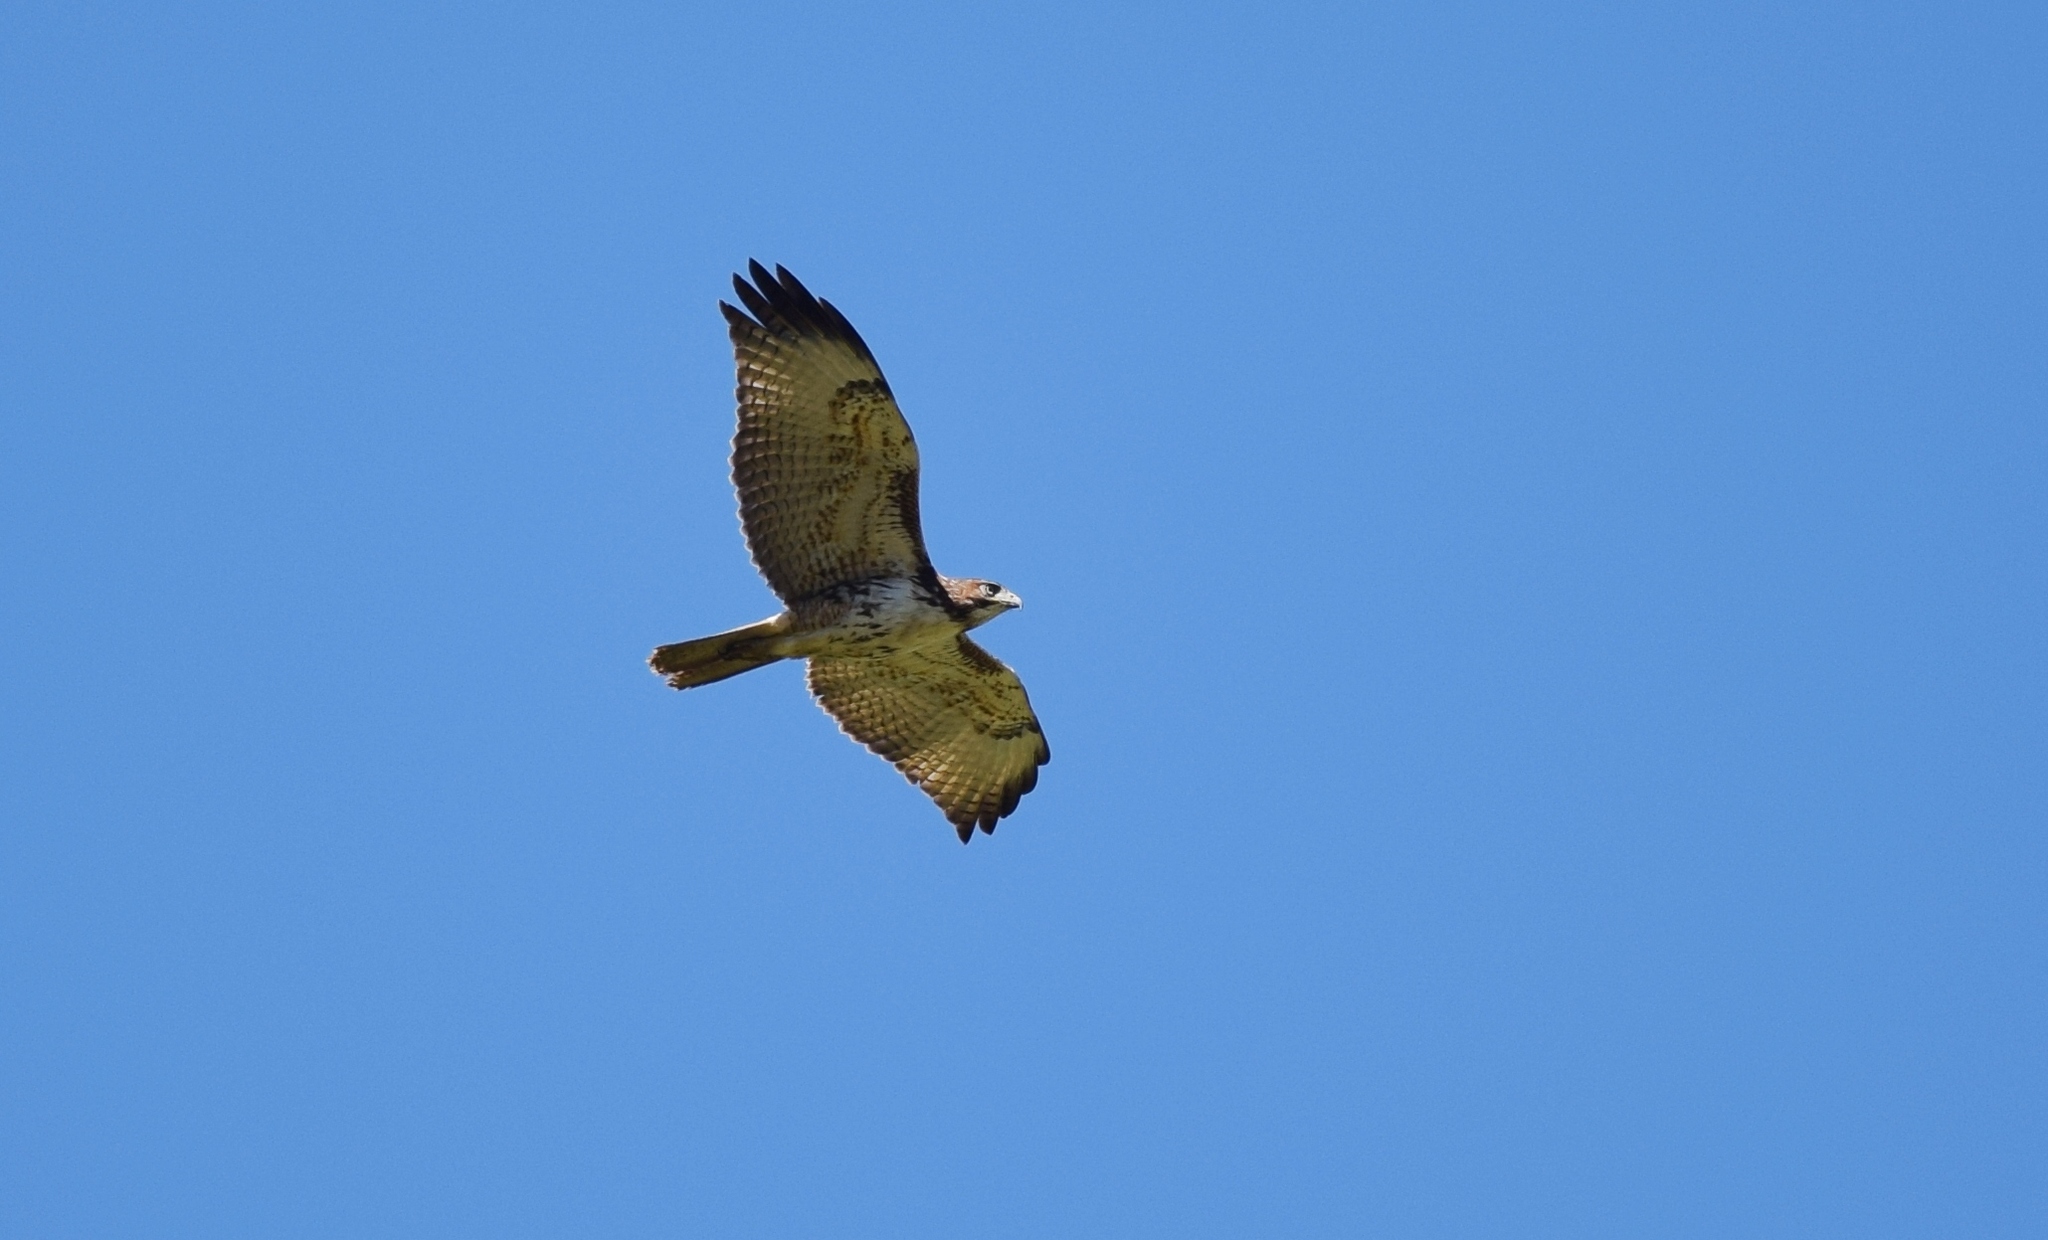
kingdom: Animalia
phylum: Chordata
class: Aves
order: Accipitriformes
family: Accipitridae
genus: Buteo
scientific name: Buteo jamaicensis
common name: Red-tailed hawk
